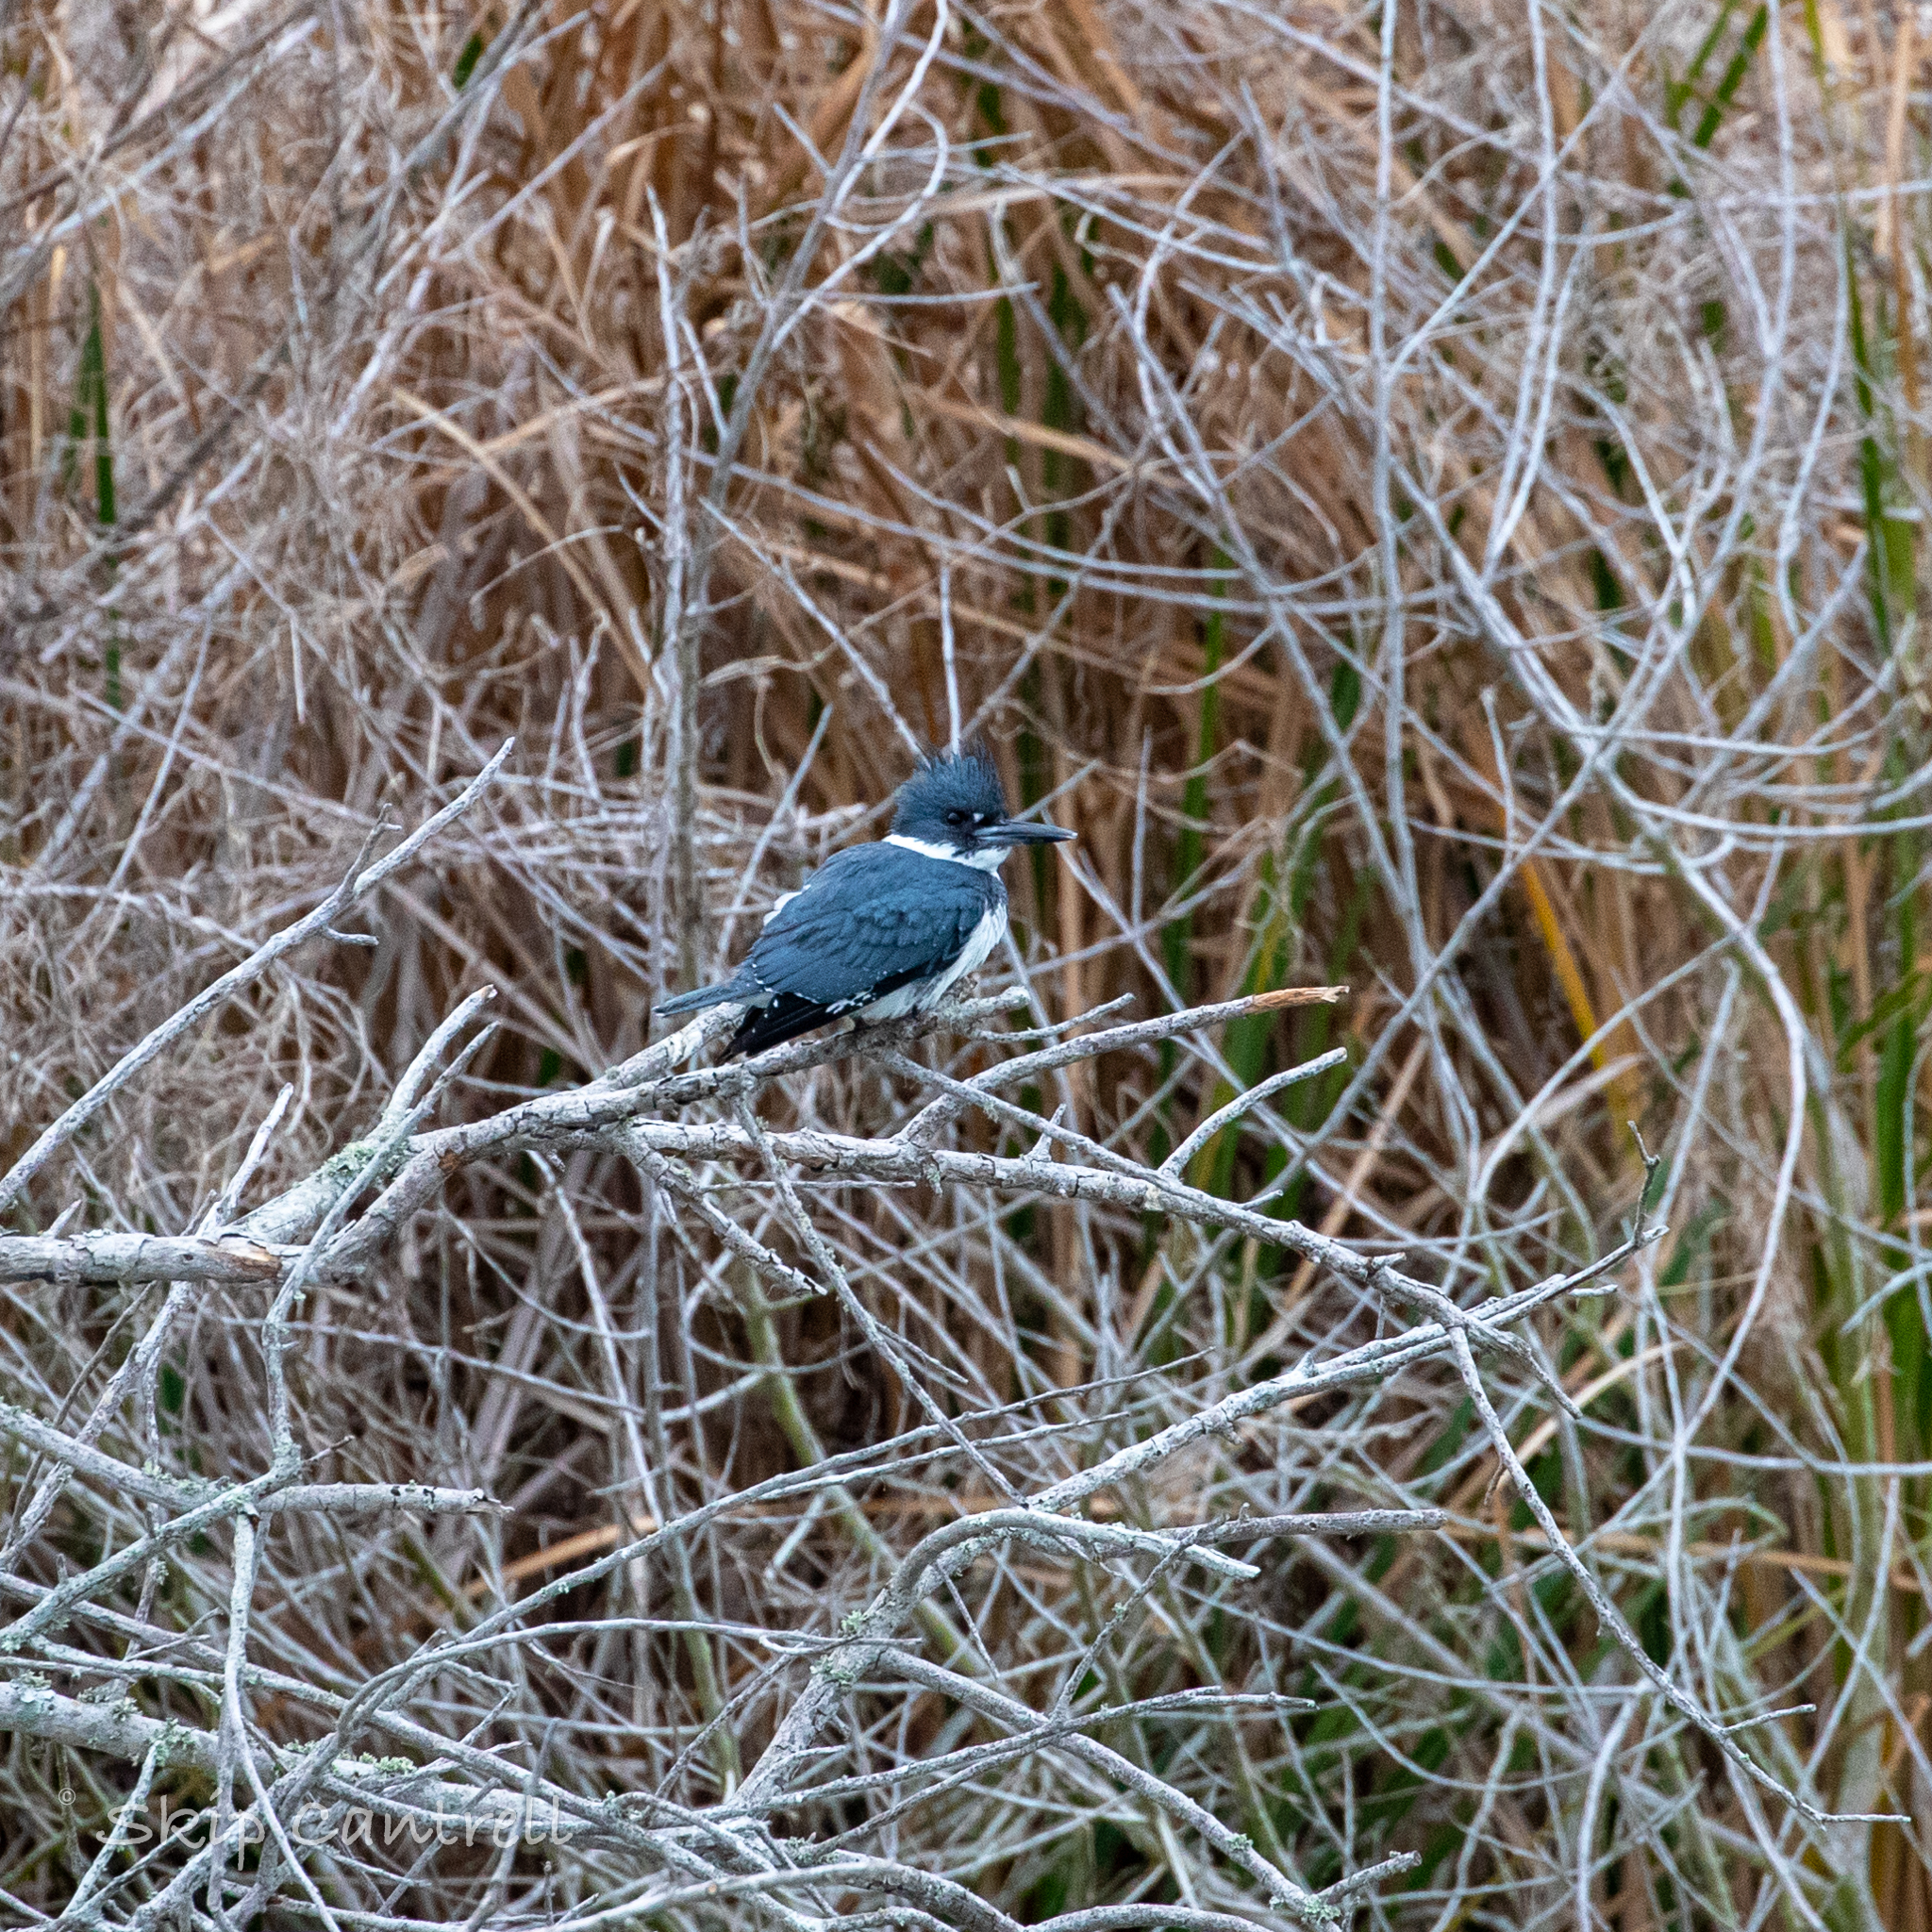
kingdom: Animalia
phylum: Chordata
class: Aves
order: Coraciiformes
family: Alcedinidae
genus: Megaceryle
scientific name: Megaceryle alcyon
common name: Belted kingfisher
